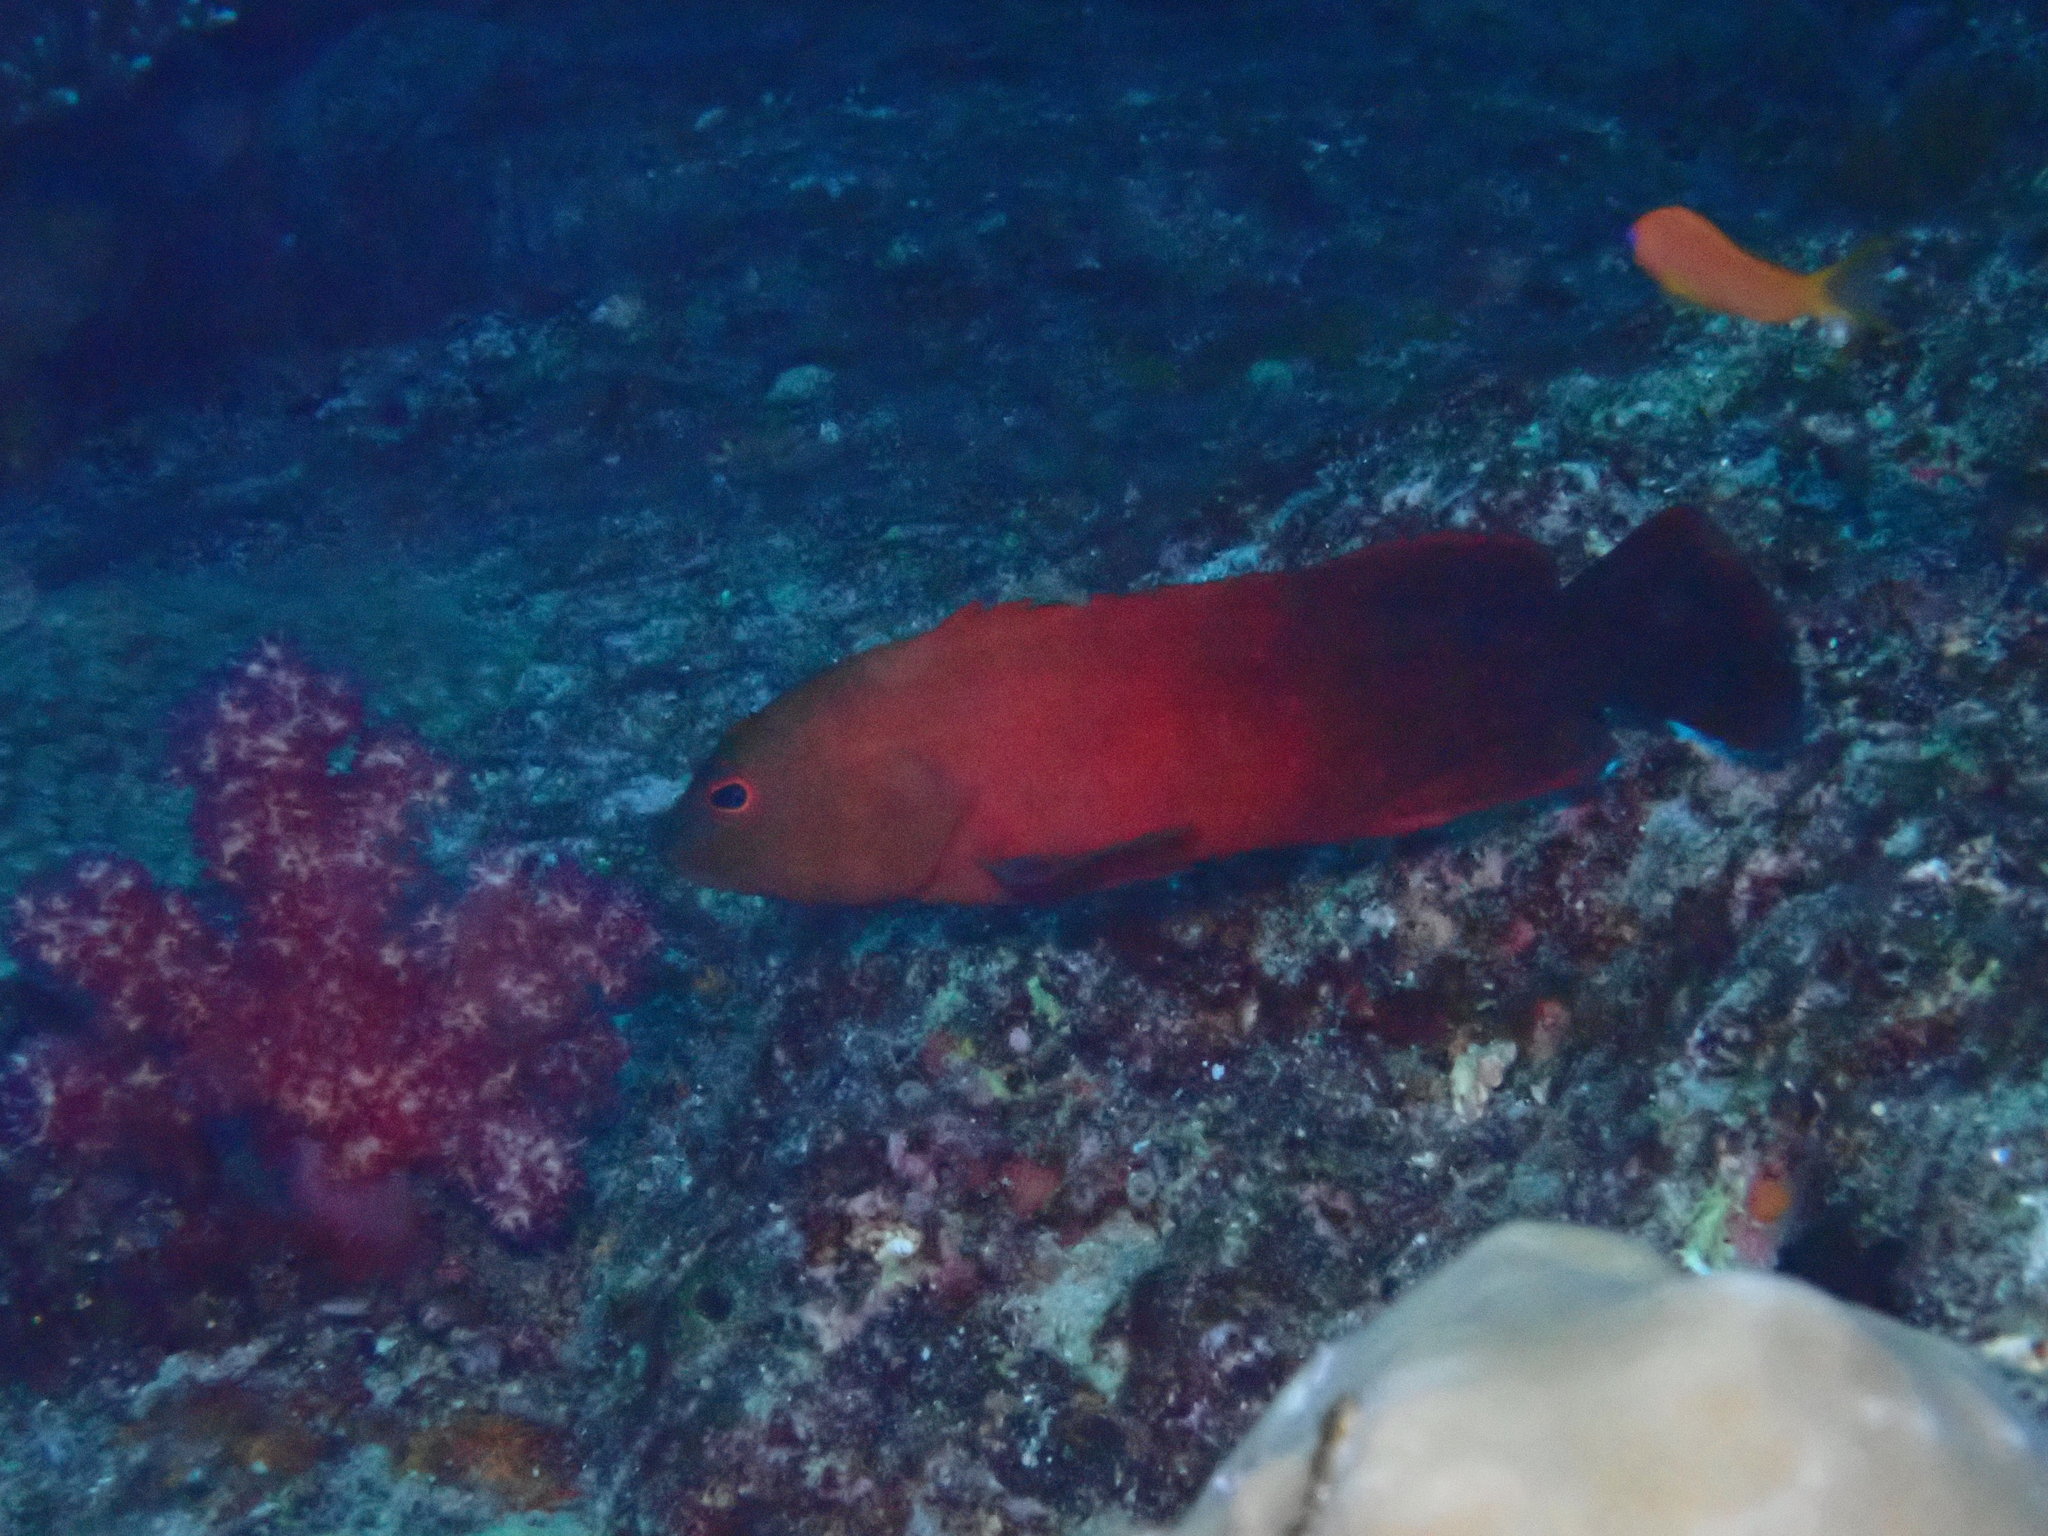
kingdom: Animalia
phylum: Chordata
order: Perciformes
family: Serranidae
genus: Cephalopholis
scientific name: Cephalopholis nigripinnis
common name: Duskyfin hind
